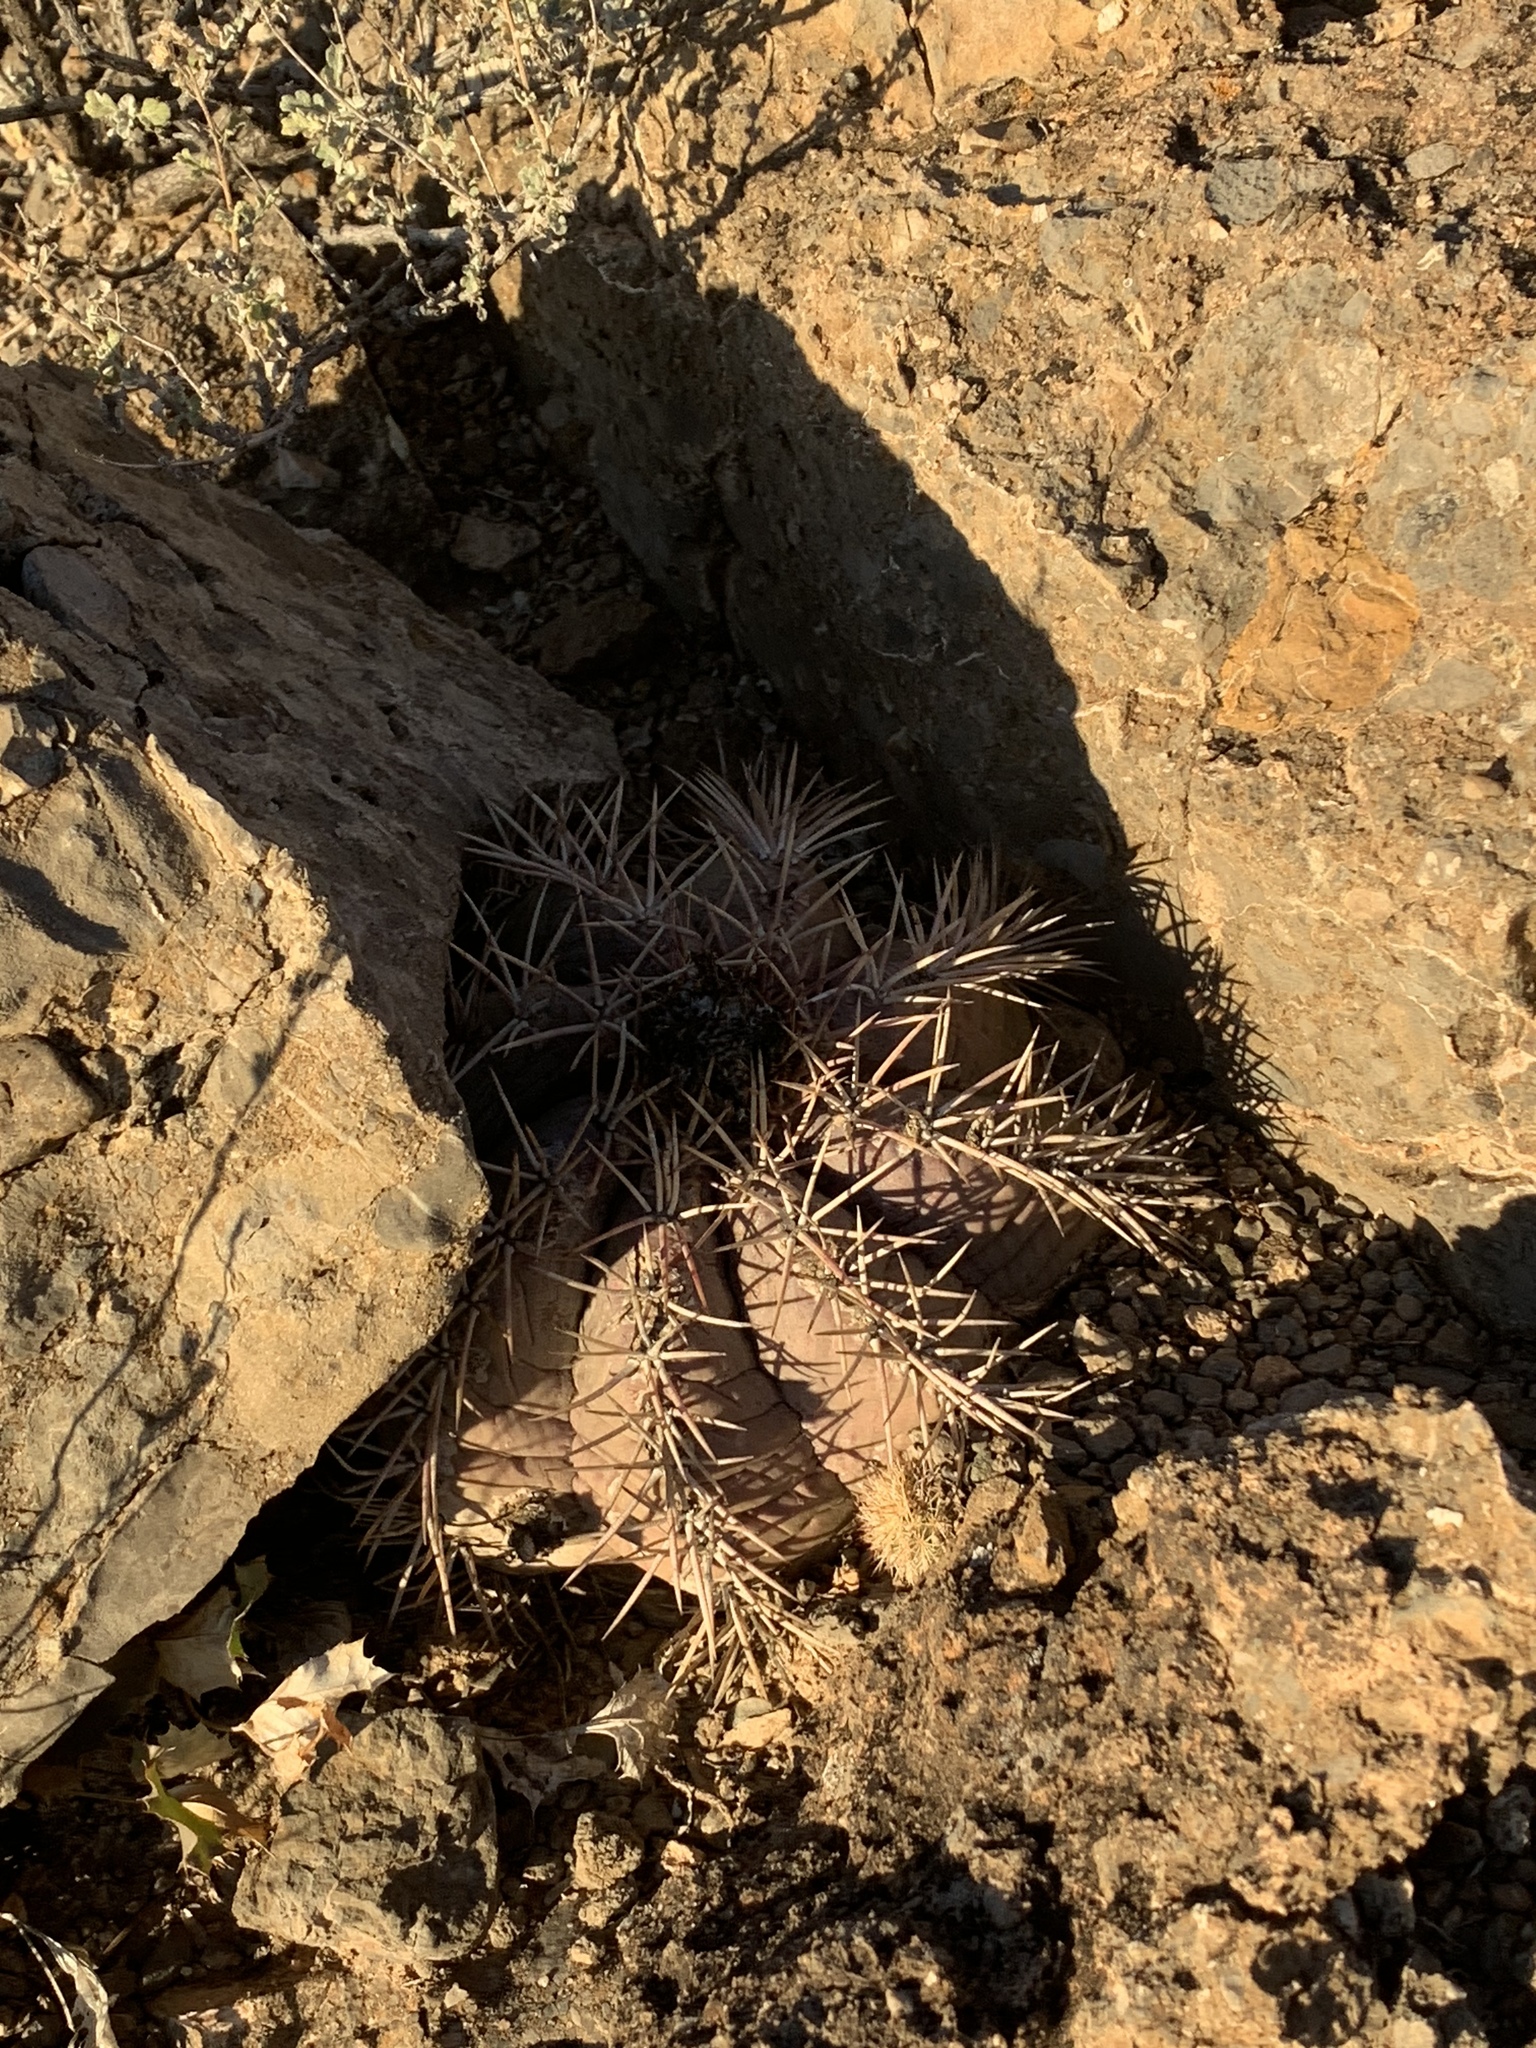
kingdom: Plantae
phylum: Tracheophyta
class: Magnoliopsida
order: Caryophyllales
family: Cactaceae
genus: Echinocactus
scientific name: Echinocactus horizonthalonius
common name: Devilshead
